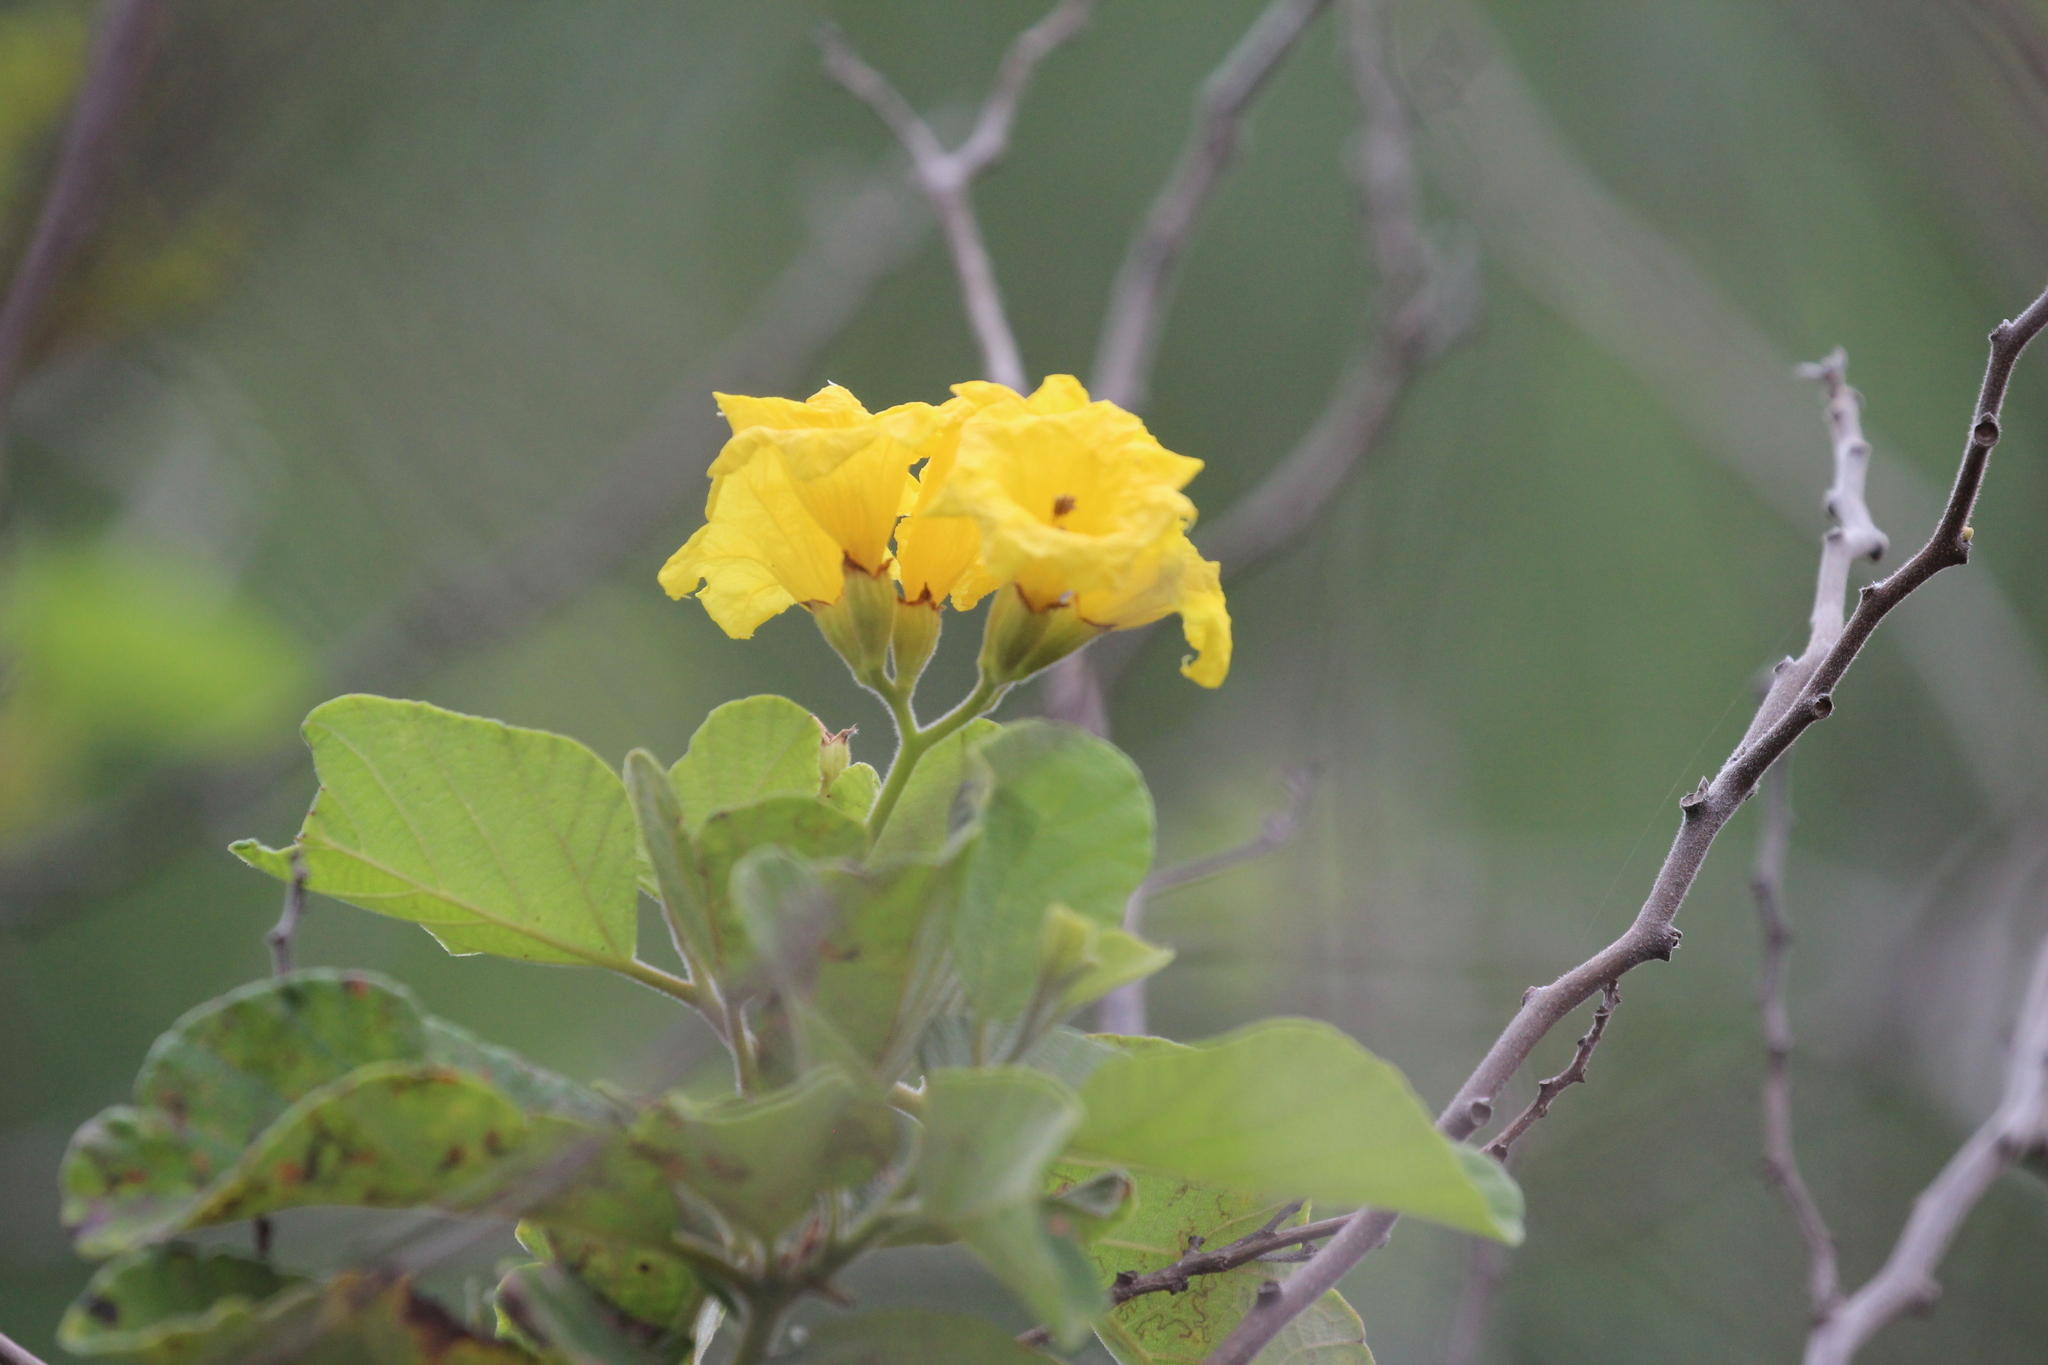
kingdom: Plantae
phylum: Tracheophyta
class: Magnoliopsida
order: Boraginales
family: Cordiaceae
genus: Cordia
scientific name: Cordia lutea
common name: Yellow geiger
